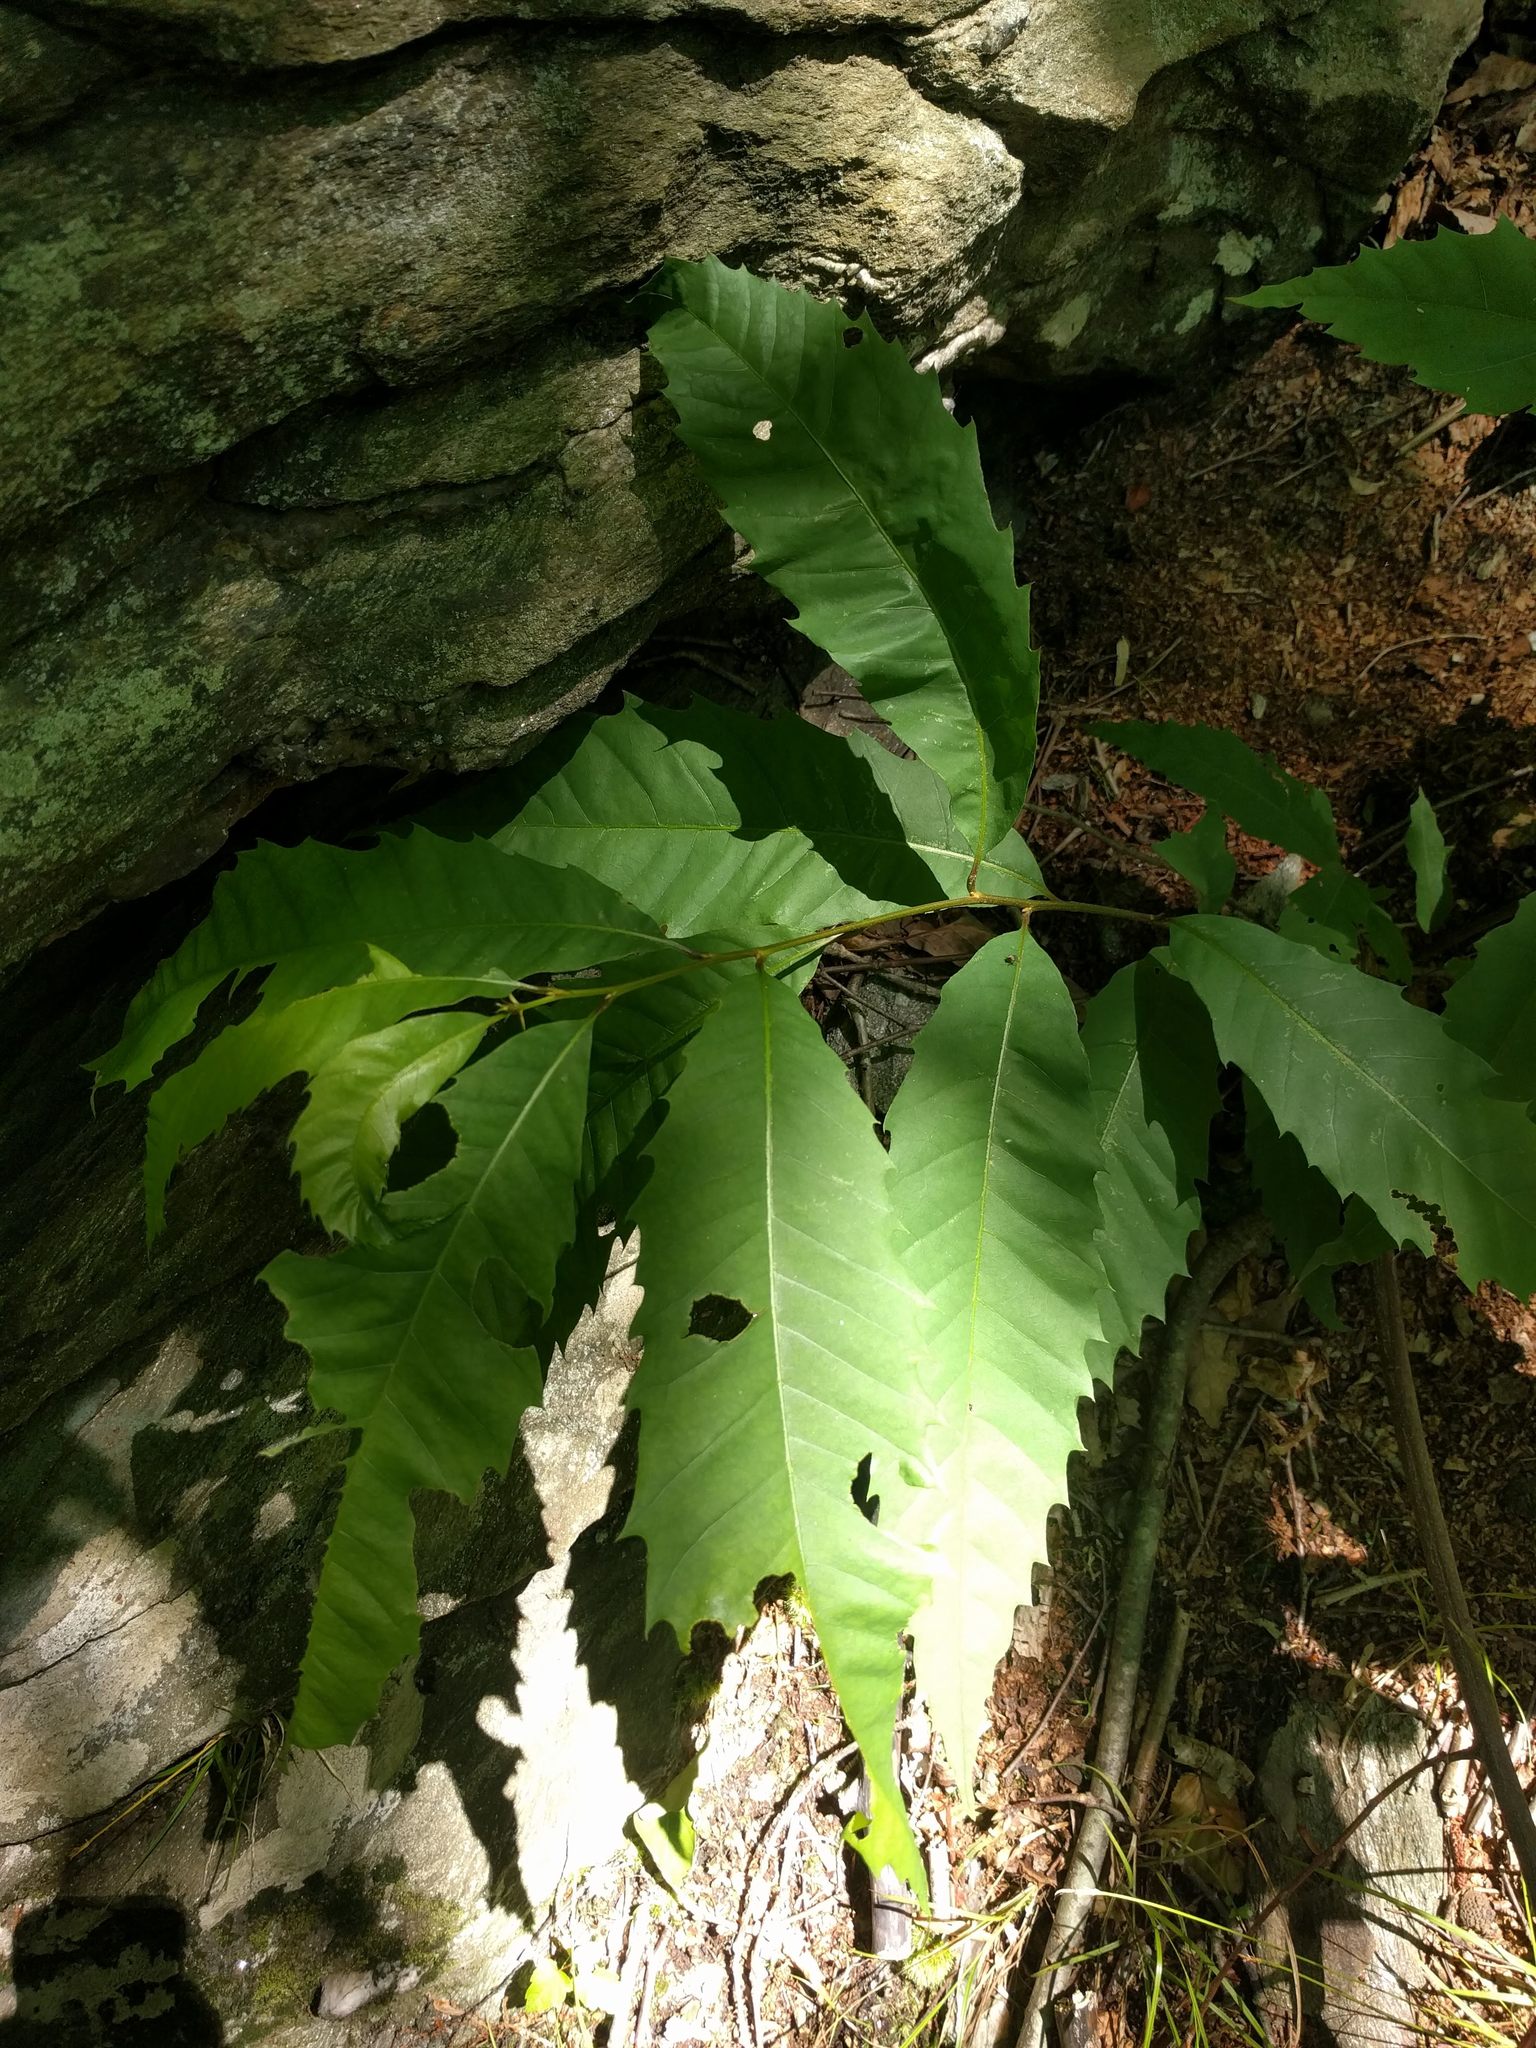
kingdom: Plantae
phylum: Tracheophyta
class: Magnoliopsida
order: Fagales
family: Fagaceae
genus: Castanea
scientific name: Castanea dentata
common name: American chestnut
